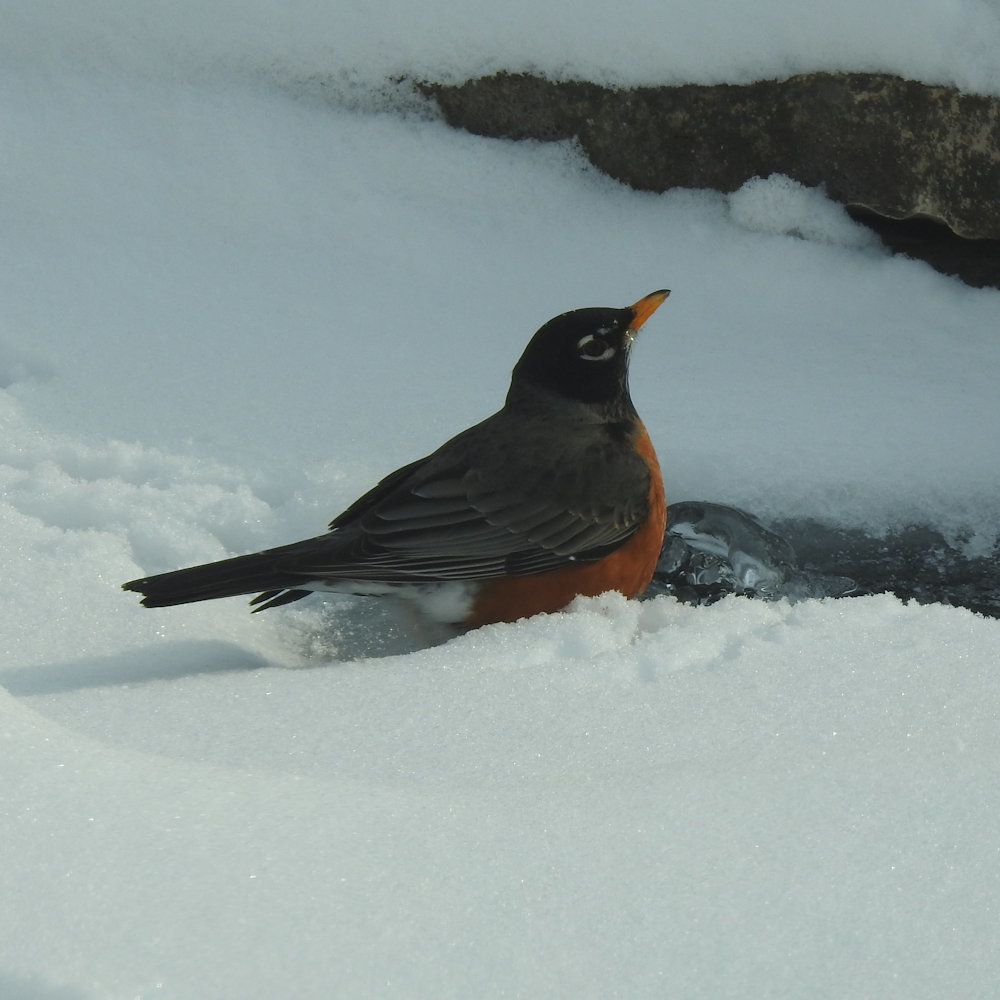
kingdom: Animalia
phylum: Chordata
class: Aves
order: Passeriformes
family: Turdidae
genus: Turdus
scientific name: Turdus migratorius
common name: American robin
